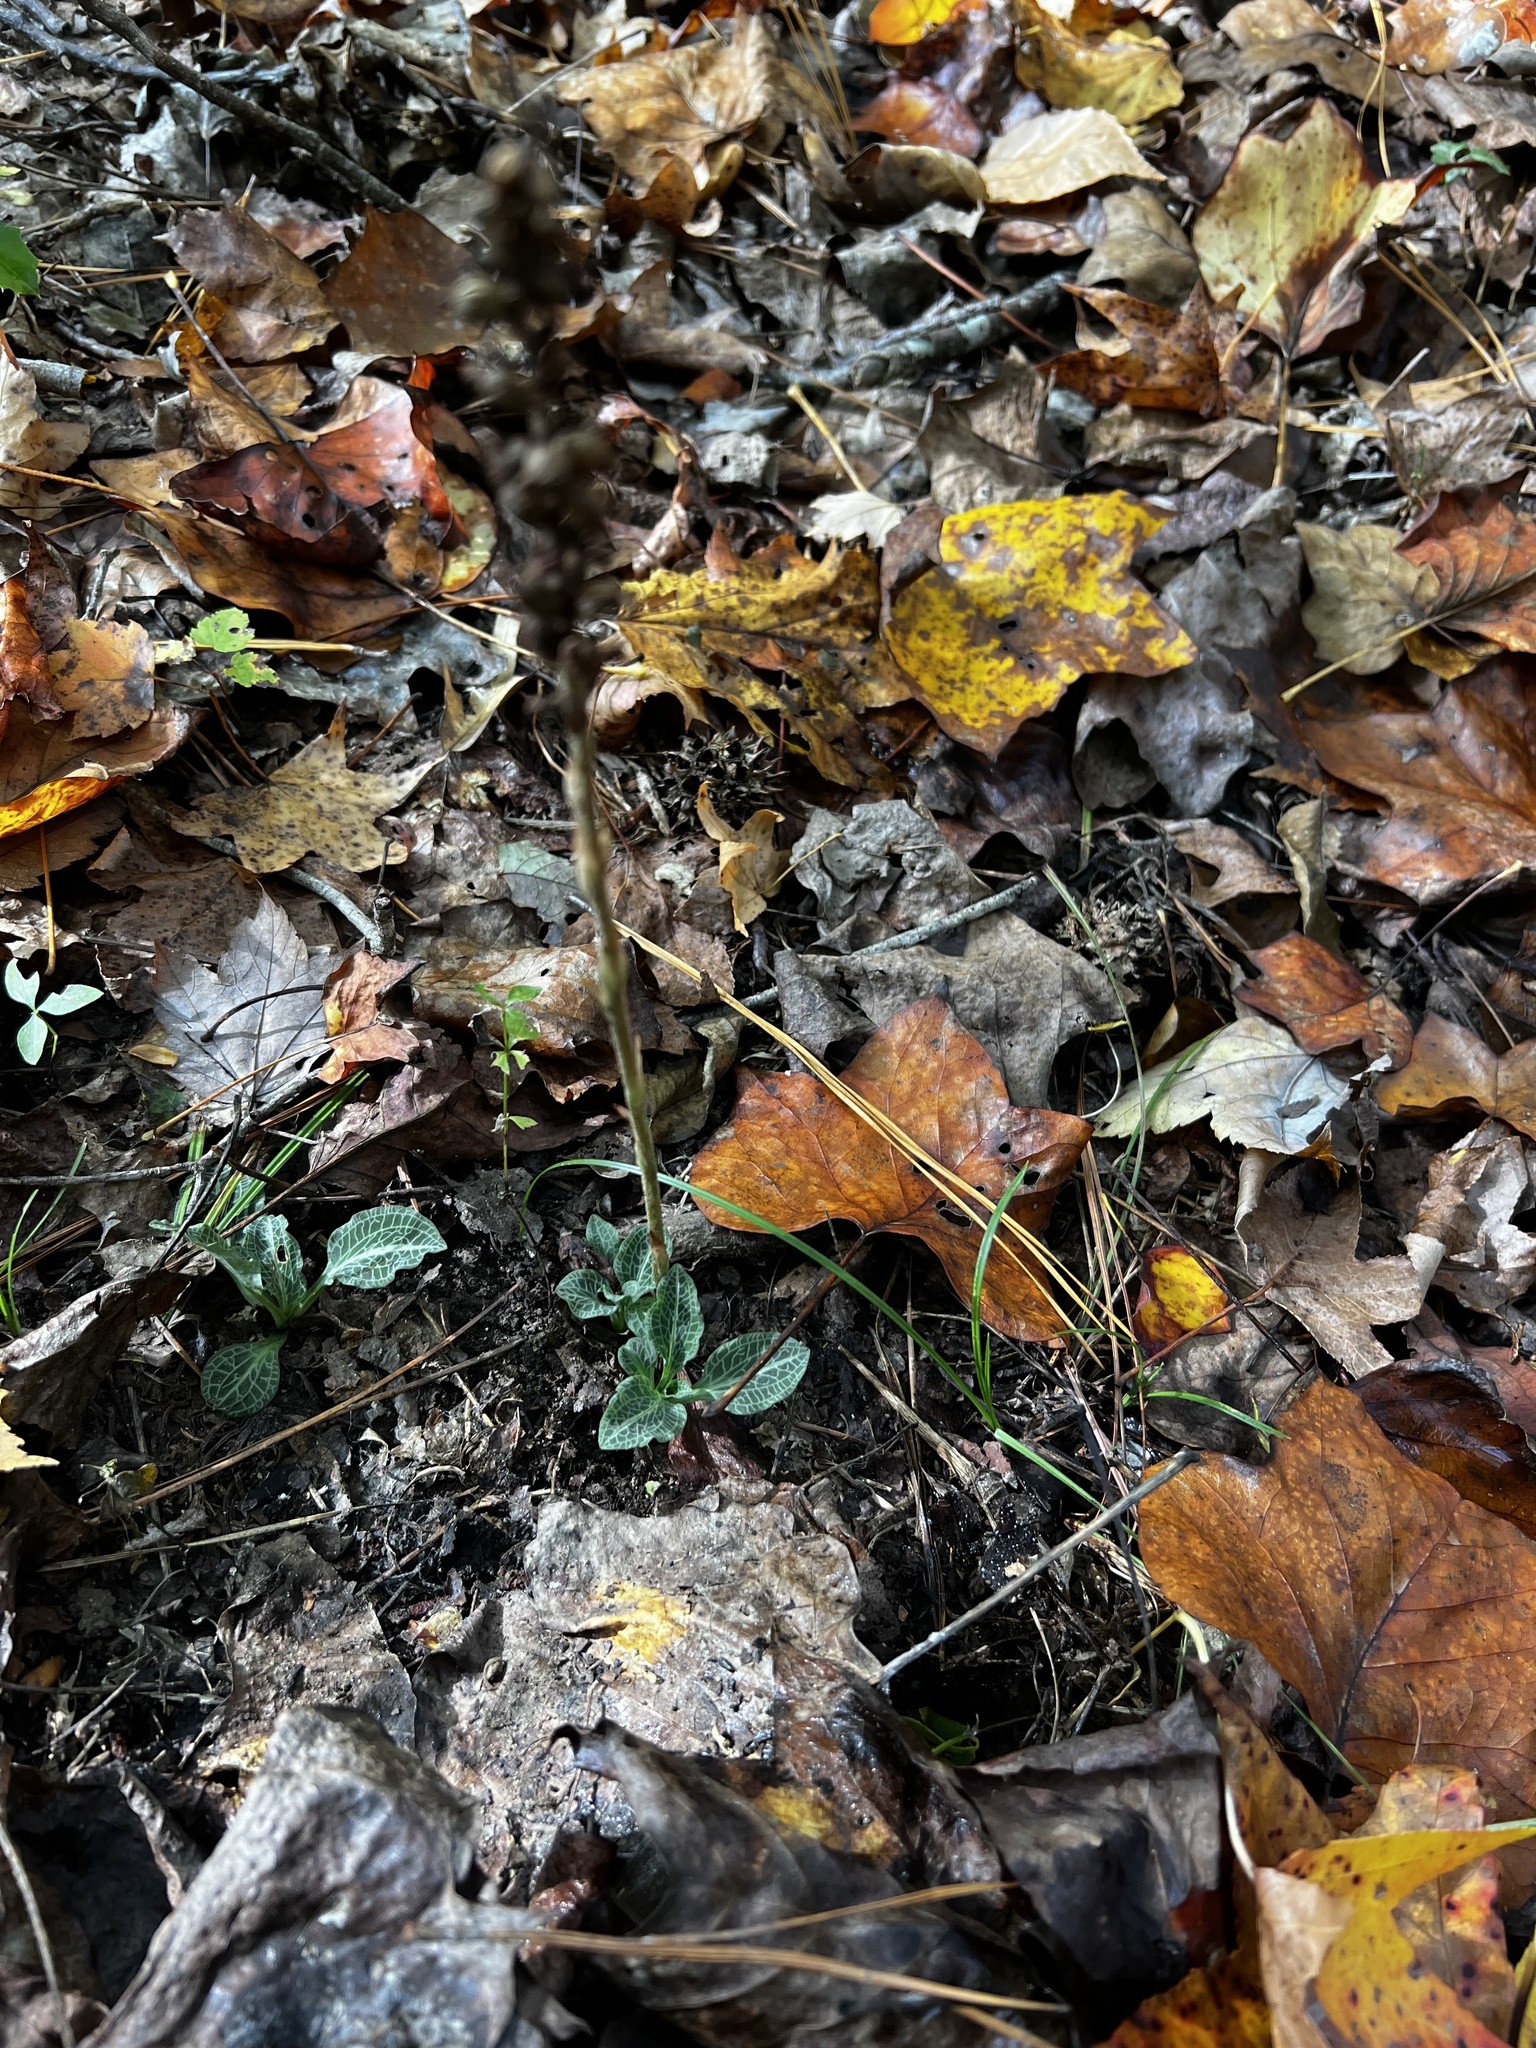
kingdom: Plantae
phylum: Tracheophyta
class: Liliopsida
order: Asparagales
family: Orchidaceae
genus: Goodyera
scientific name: Goodyera pubescens
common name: Downy rattlesnake-plantain
